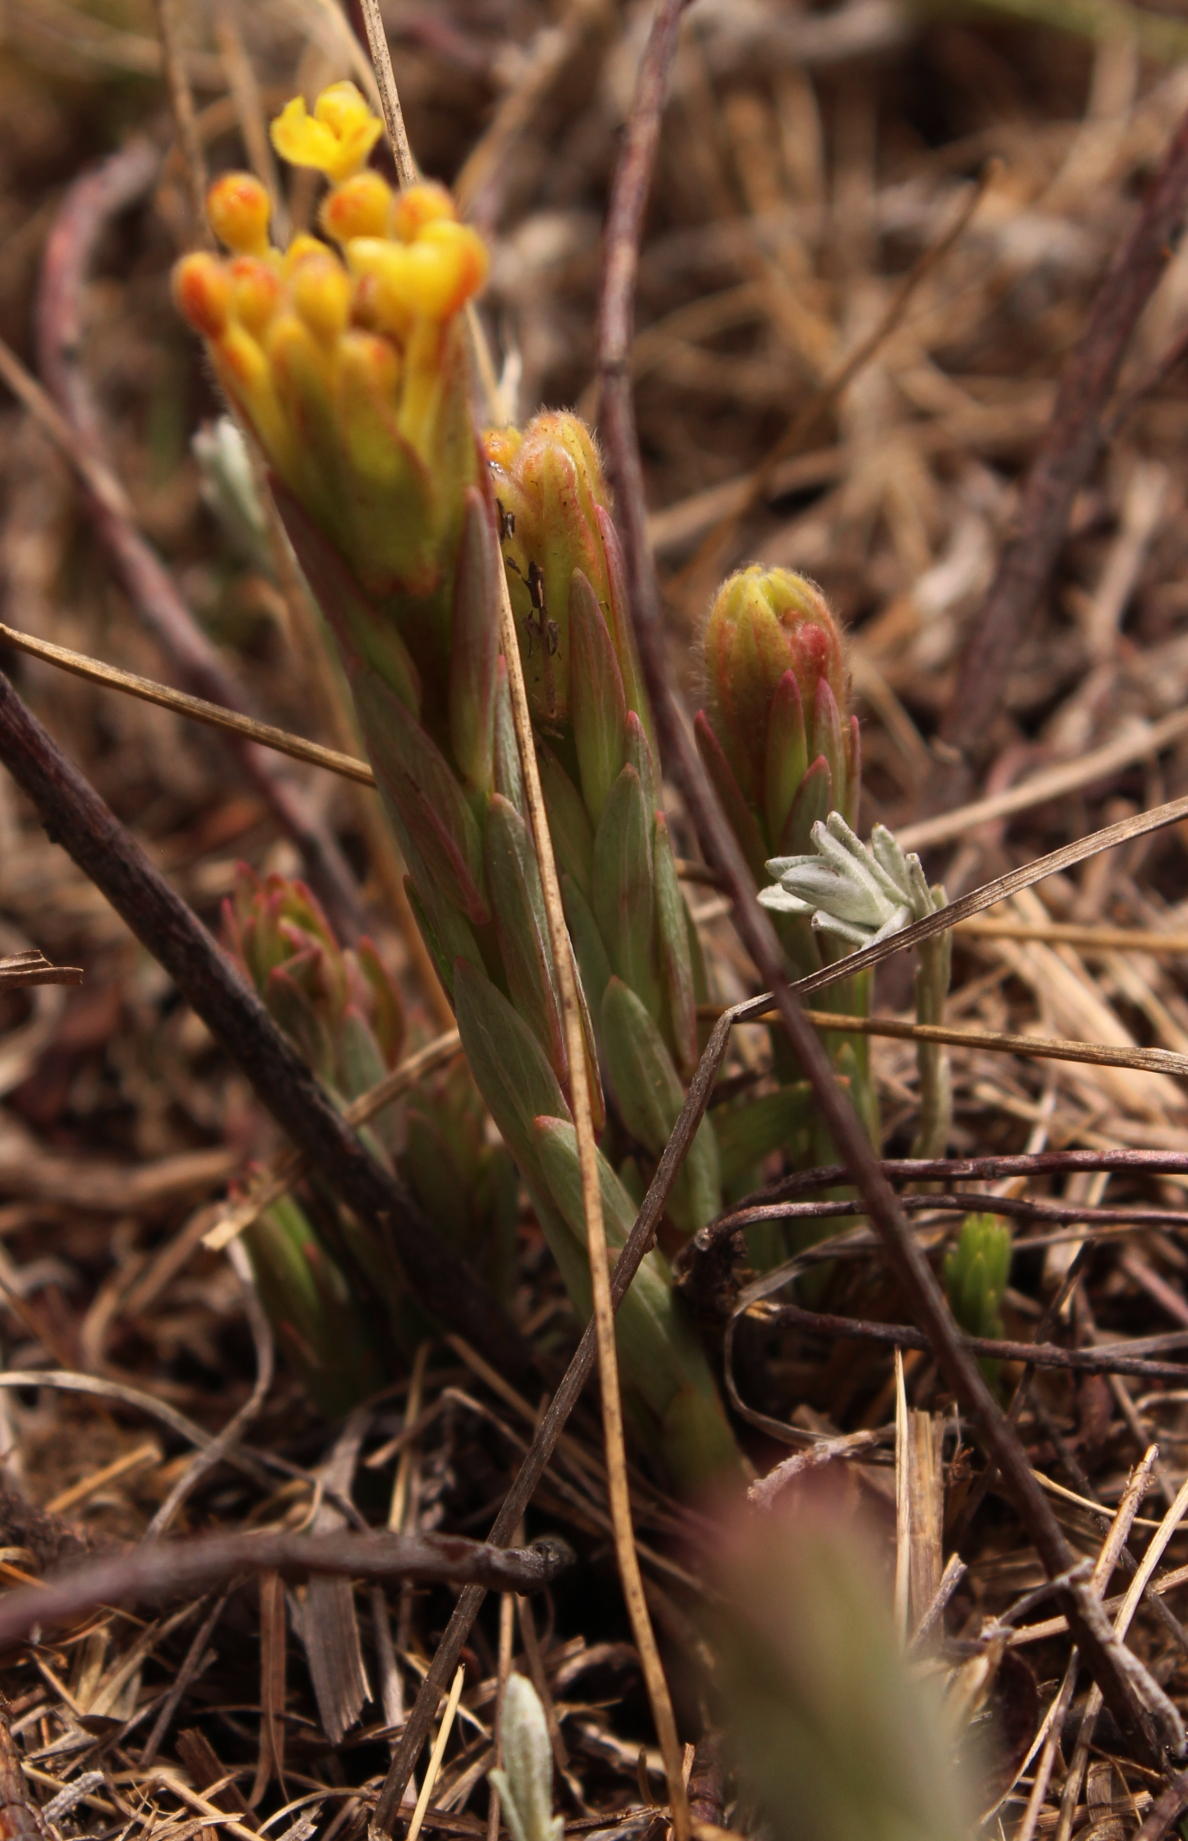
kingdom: Plantae
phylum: Tracheophyta
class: Magnoliopsida
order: Malvales
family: Thymelaeaceae
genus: Gnidia
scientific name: Gnidia kraussiana
